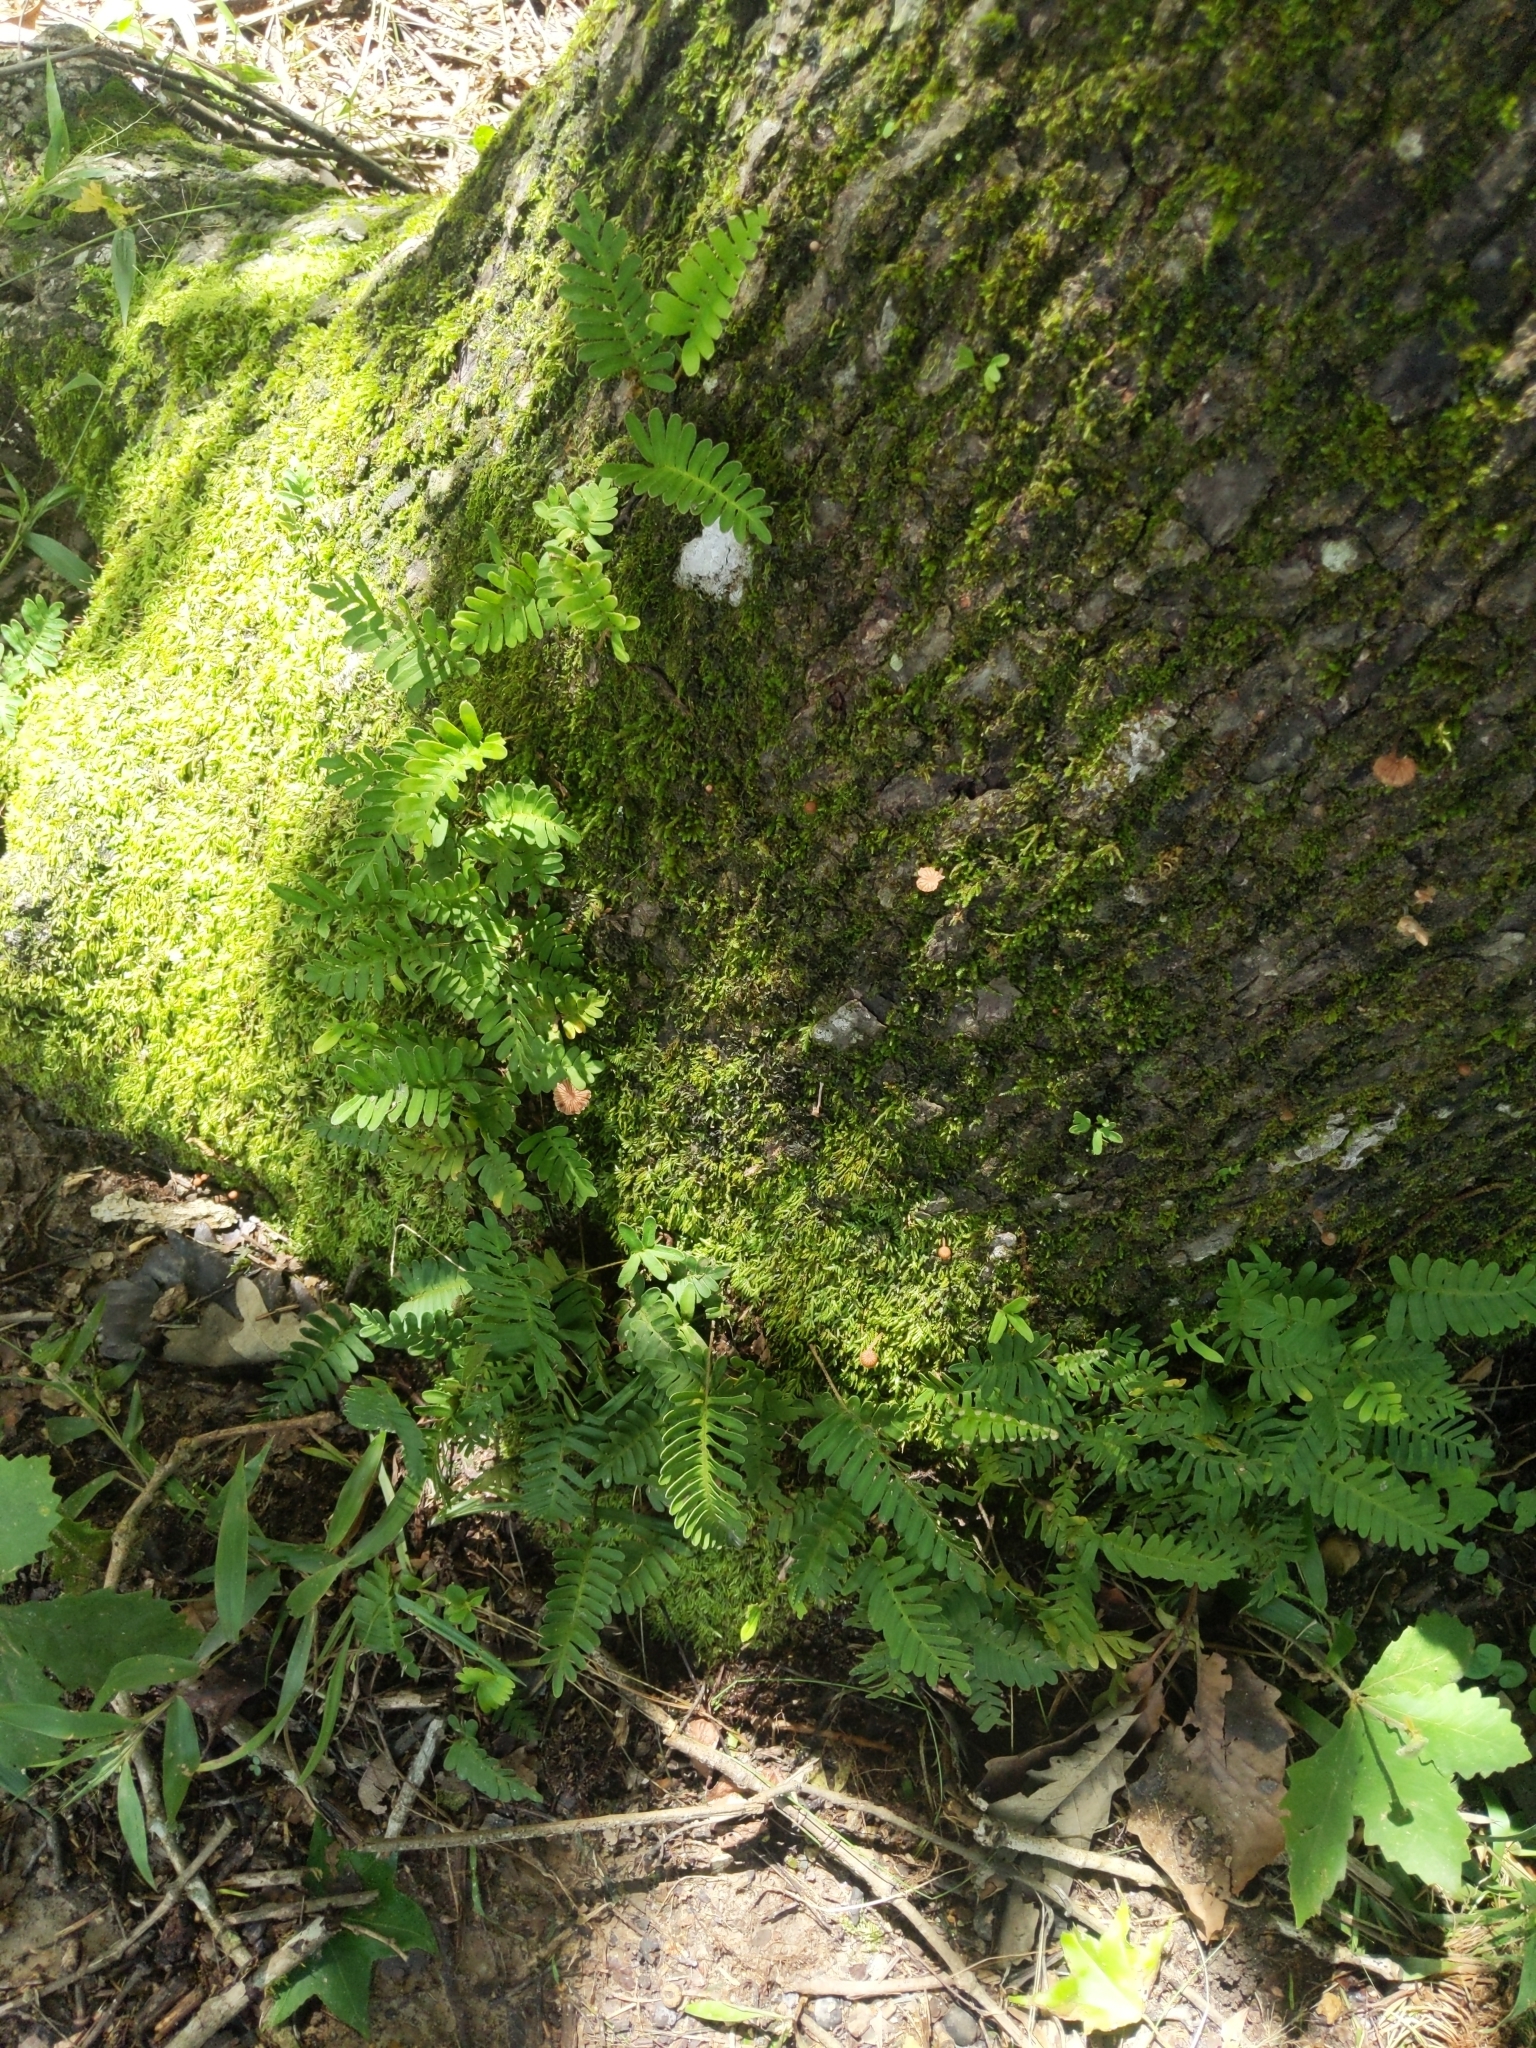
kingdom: Plantae
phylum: Tracheophyta
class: Polypodiopsida
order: Polypodiales
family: Polypodiaceae
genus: Pleopeltis
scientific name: Pleopeltis michauxiana
